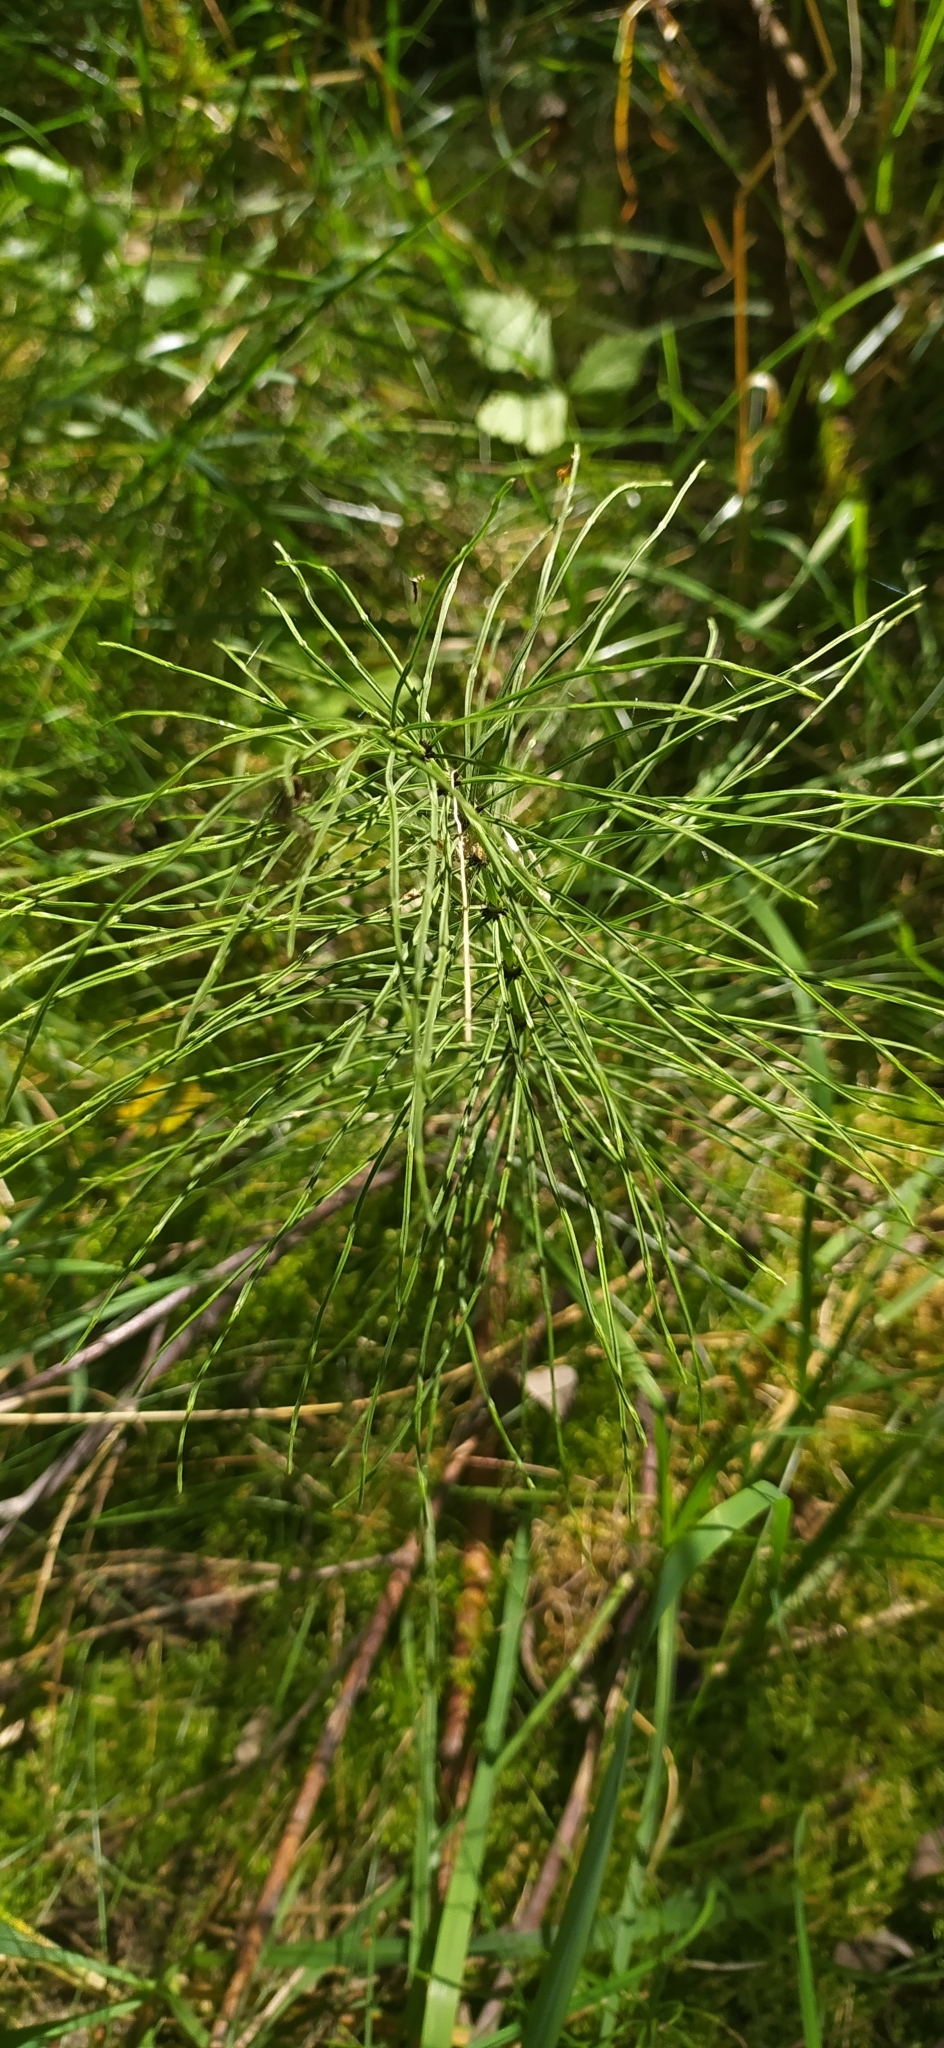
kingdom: Plantae
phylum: Tracheophyta
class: Polypodiopsida
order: Equisetales
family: Equisetaceae
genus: Equisetum
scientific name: Equisetum arvense
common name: Field horsetail
